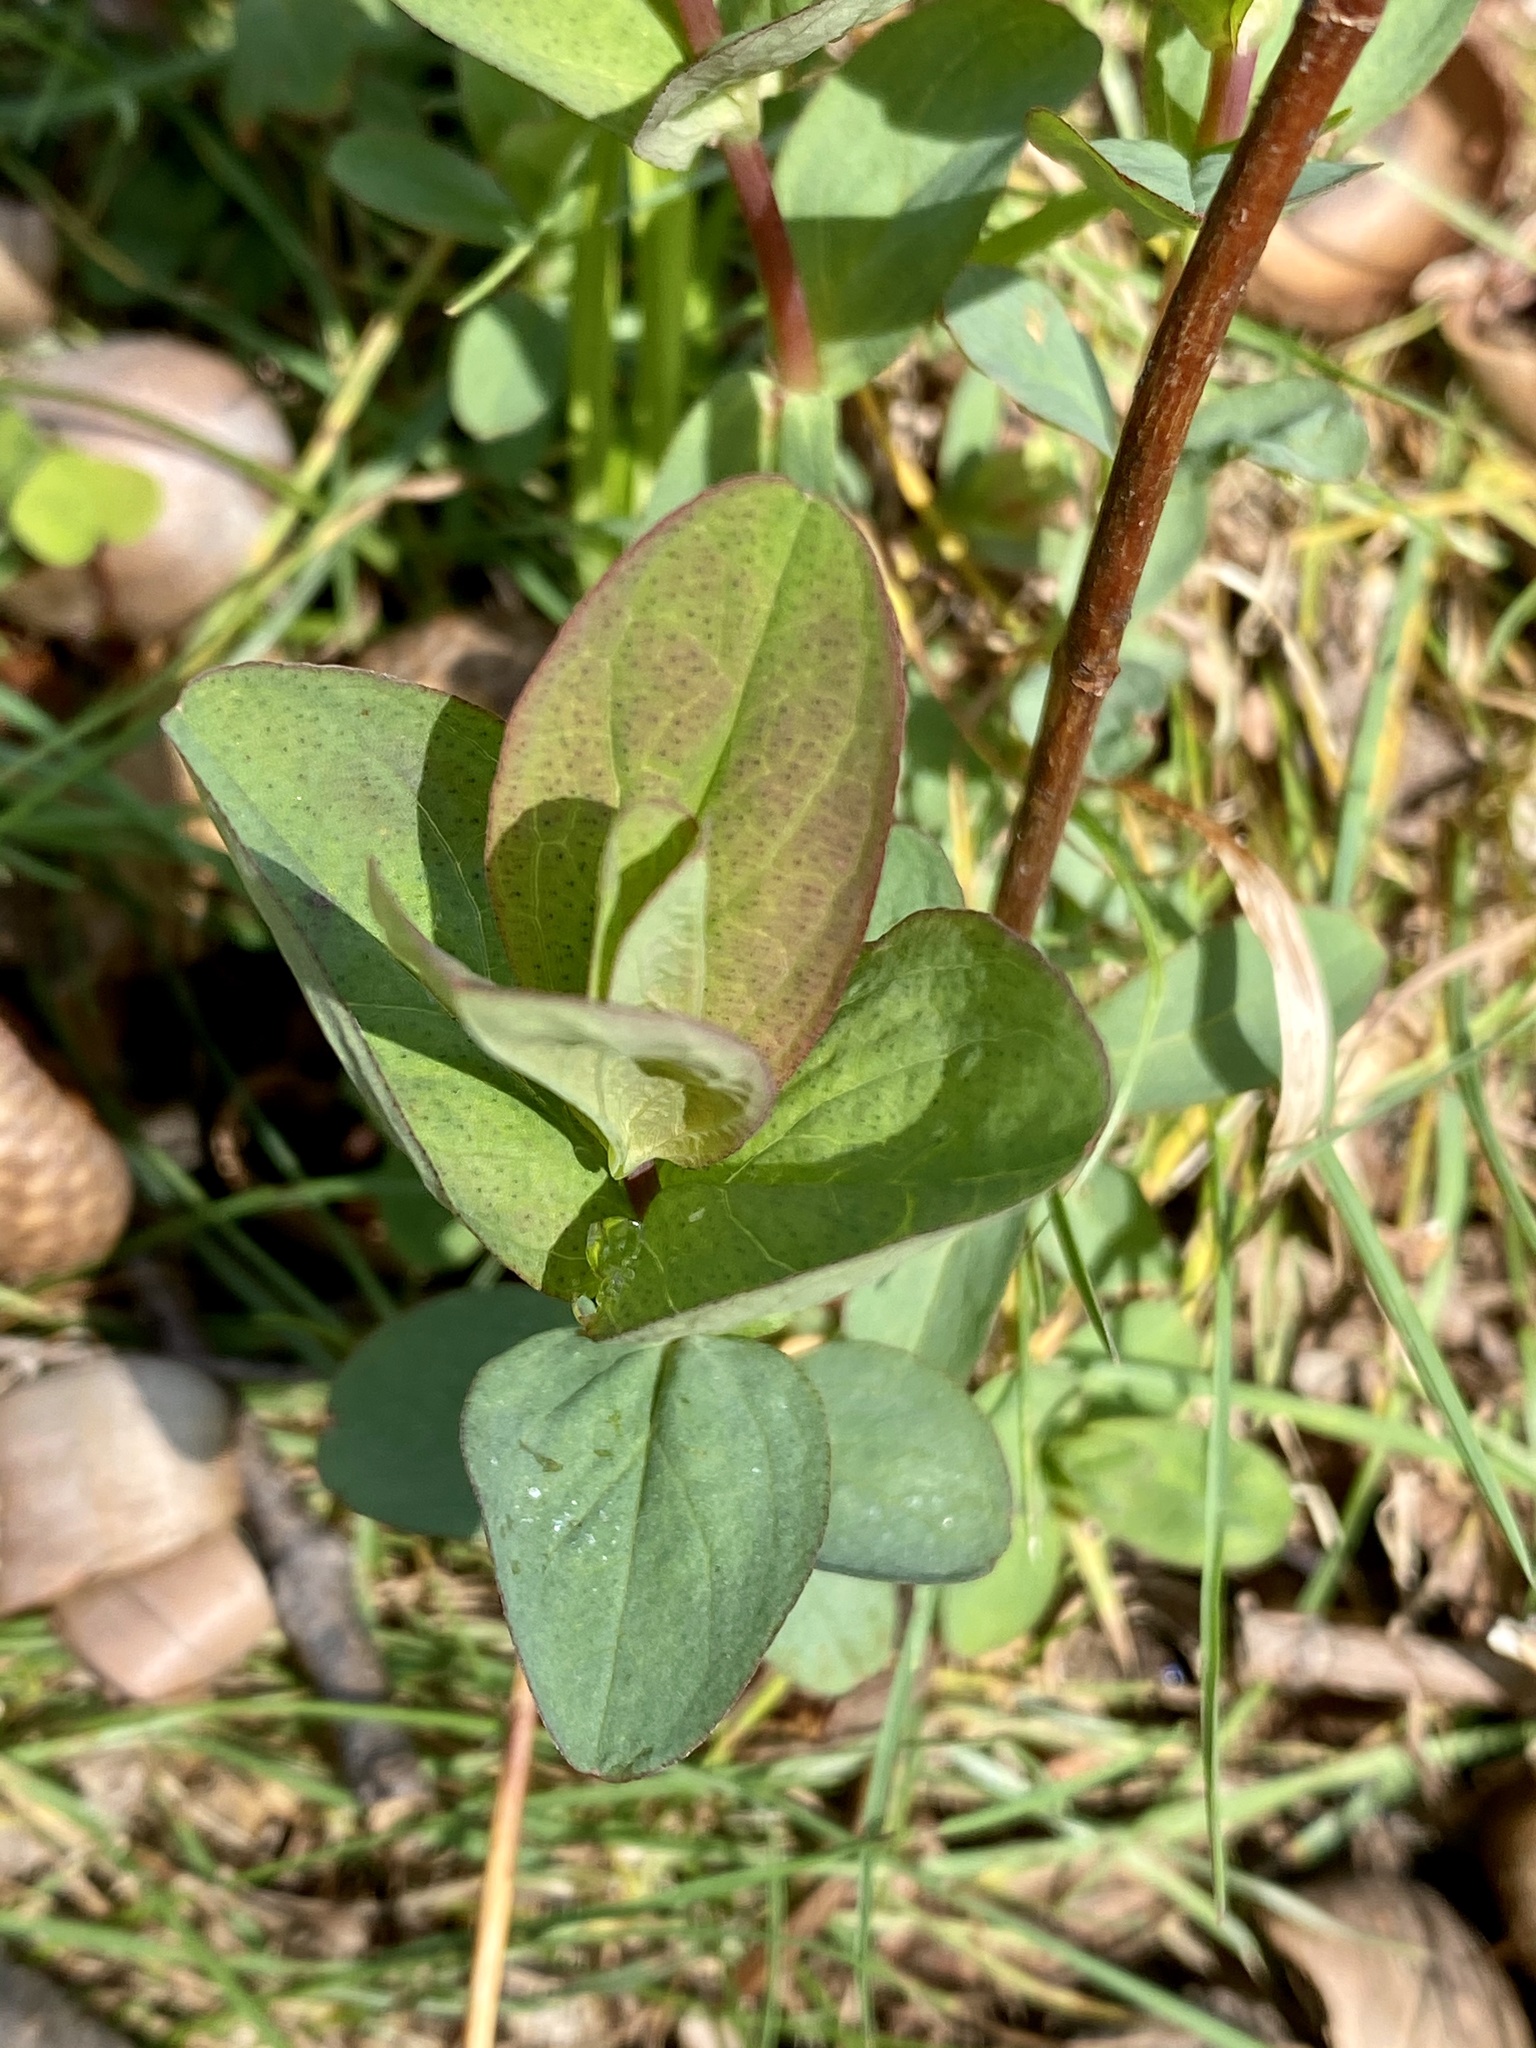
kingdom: Plantae
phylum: Tracheophyta
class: Magnoliopsida
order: Malpighiales
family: Hypericaceae
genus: Hypericum
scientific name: Hypericum punctatum
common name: Spotted st. john's-wort
